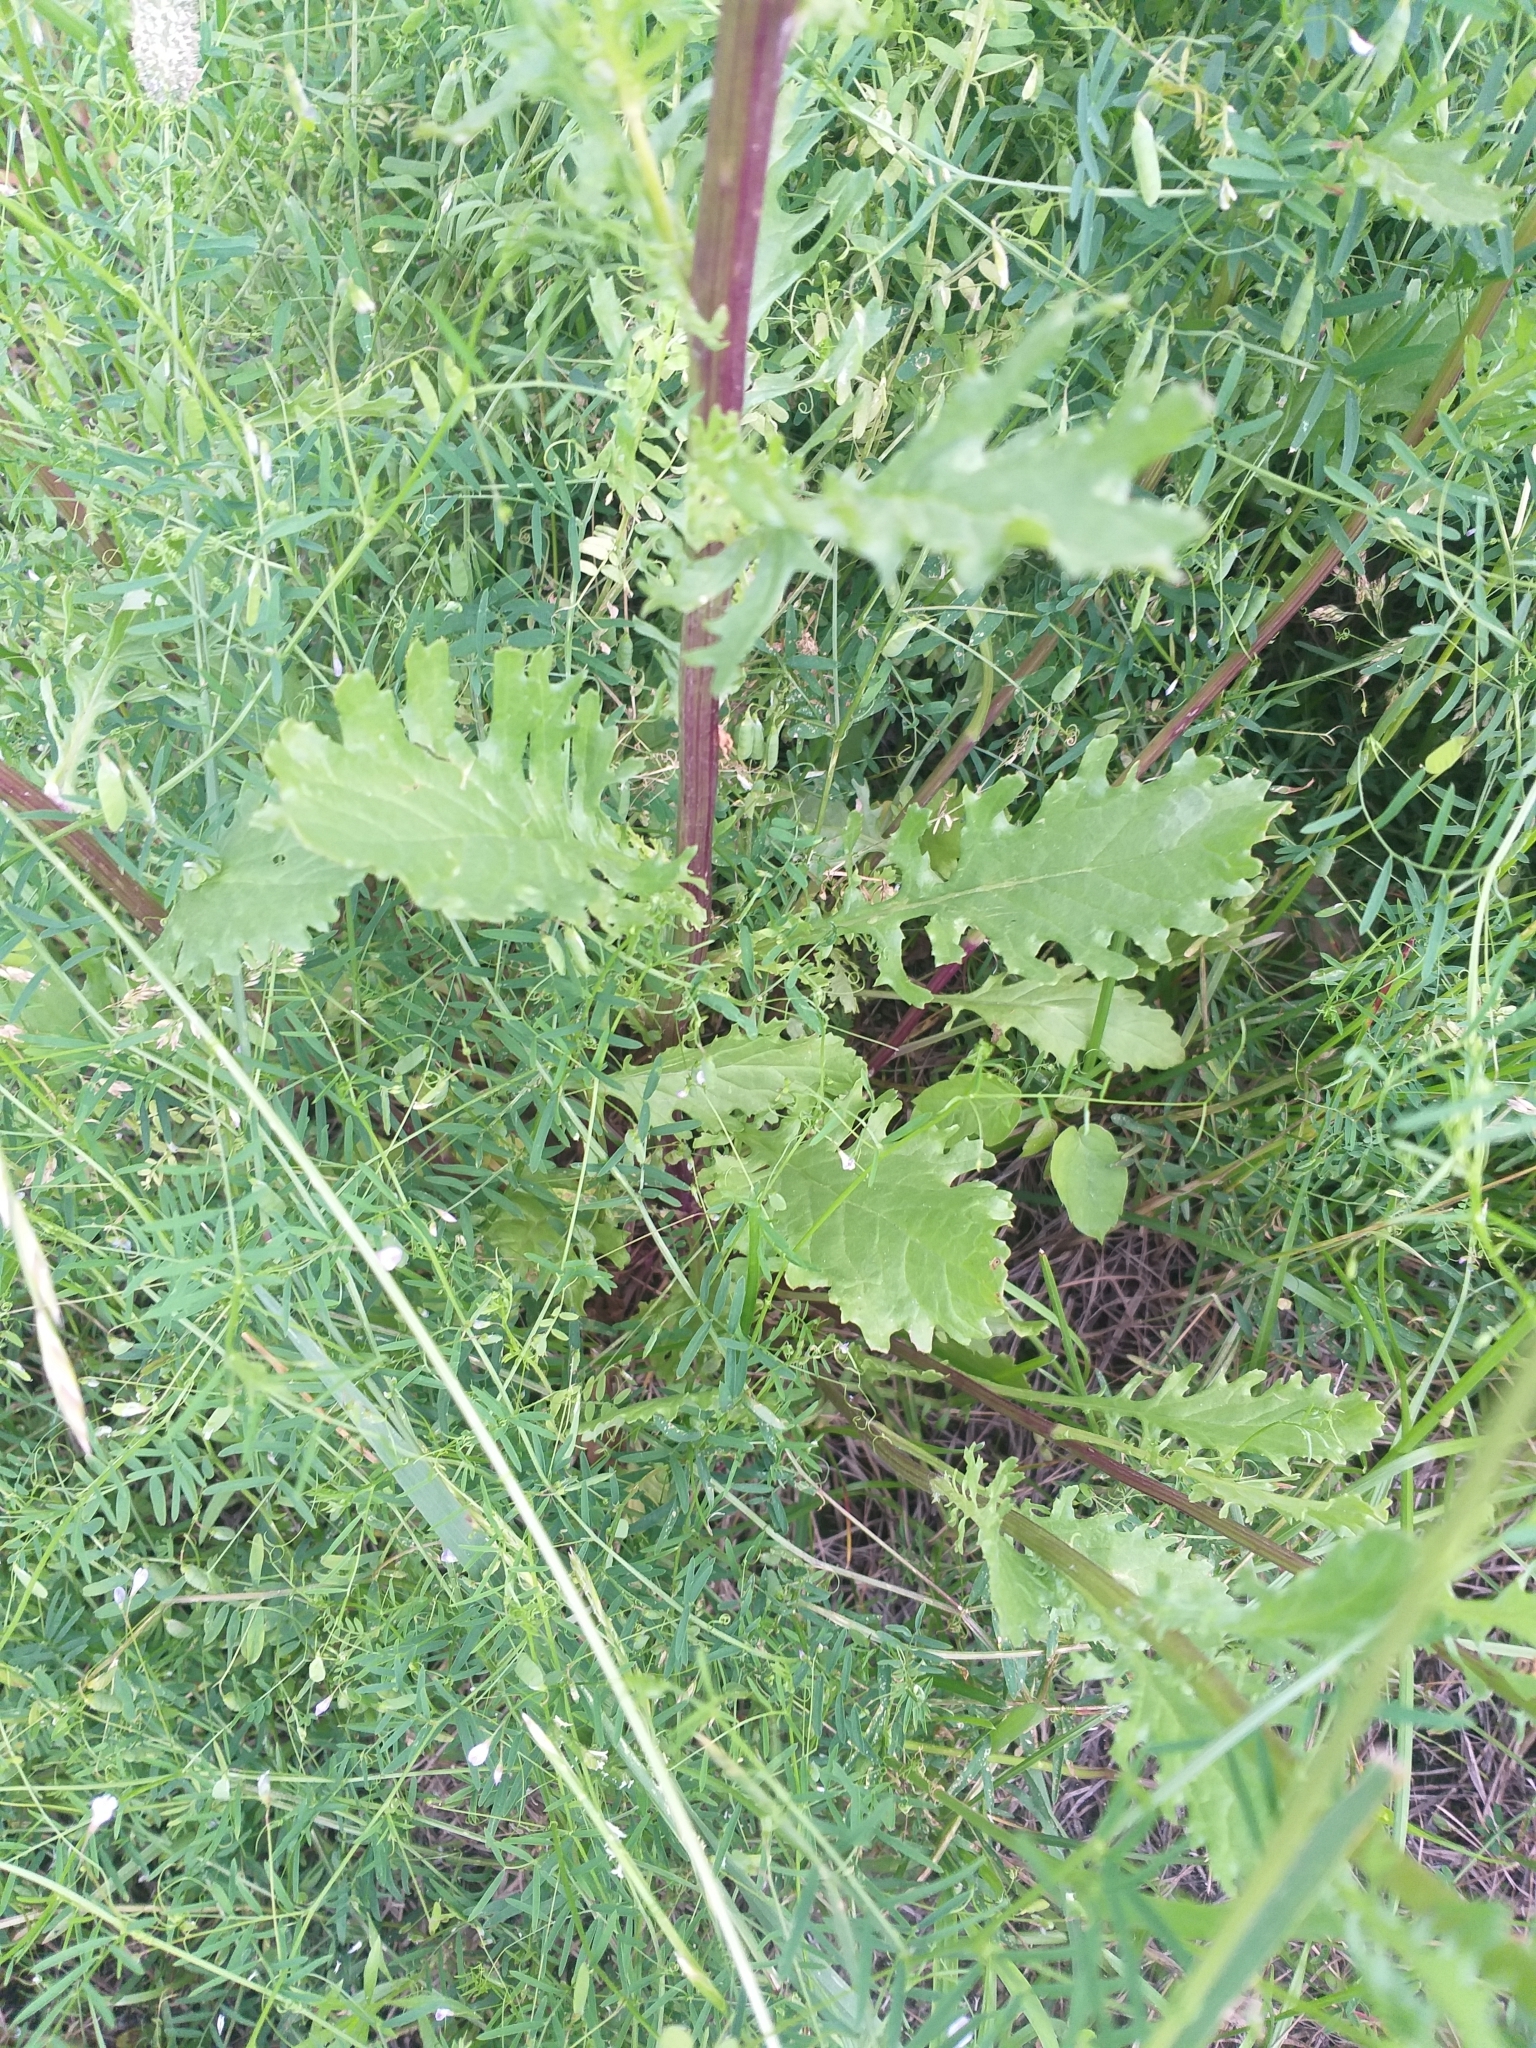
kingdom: Plantae
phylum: Tracheophyta
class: Magnoliopsida
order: Asterales
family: Asteraceae
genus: Jacobaea
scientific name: Jacobaea vulgaris
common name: Stinking willie
